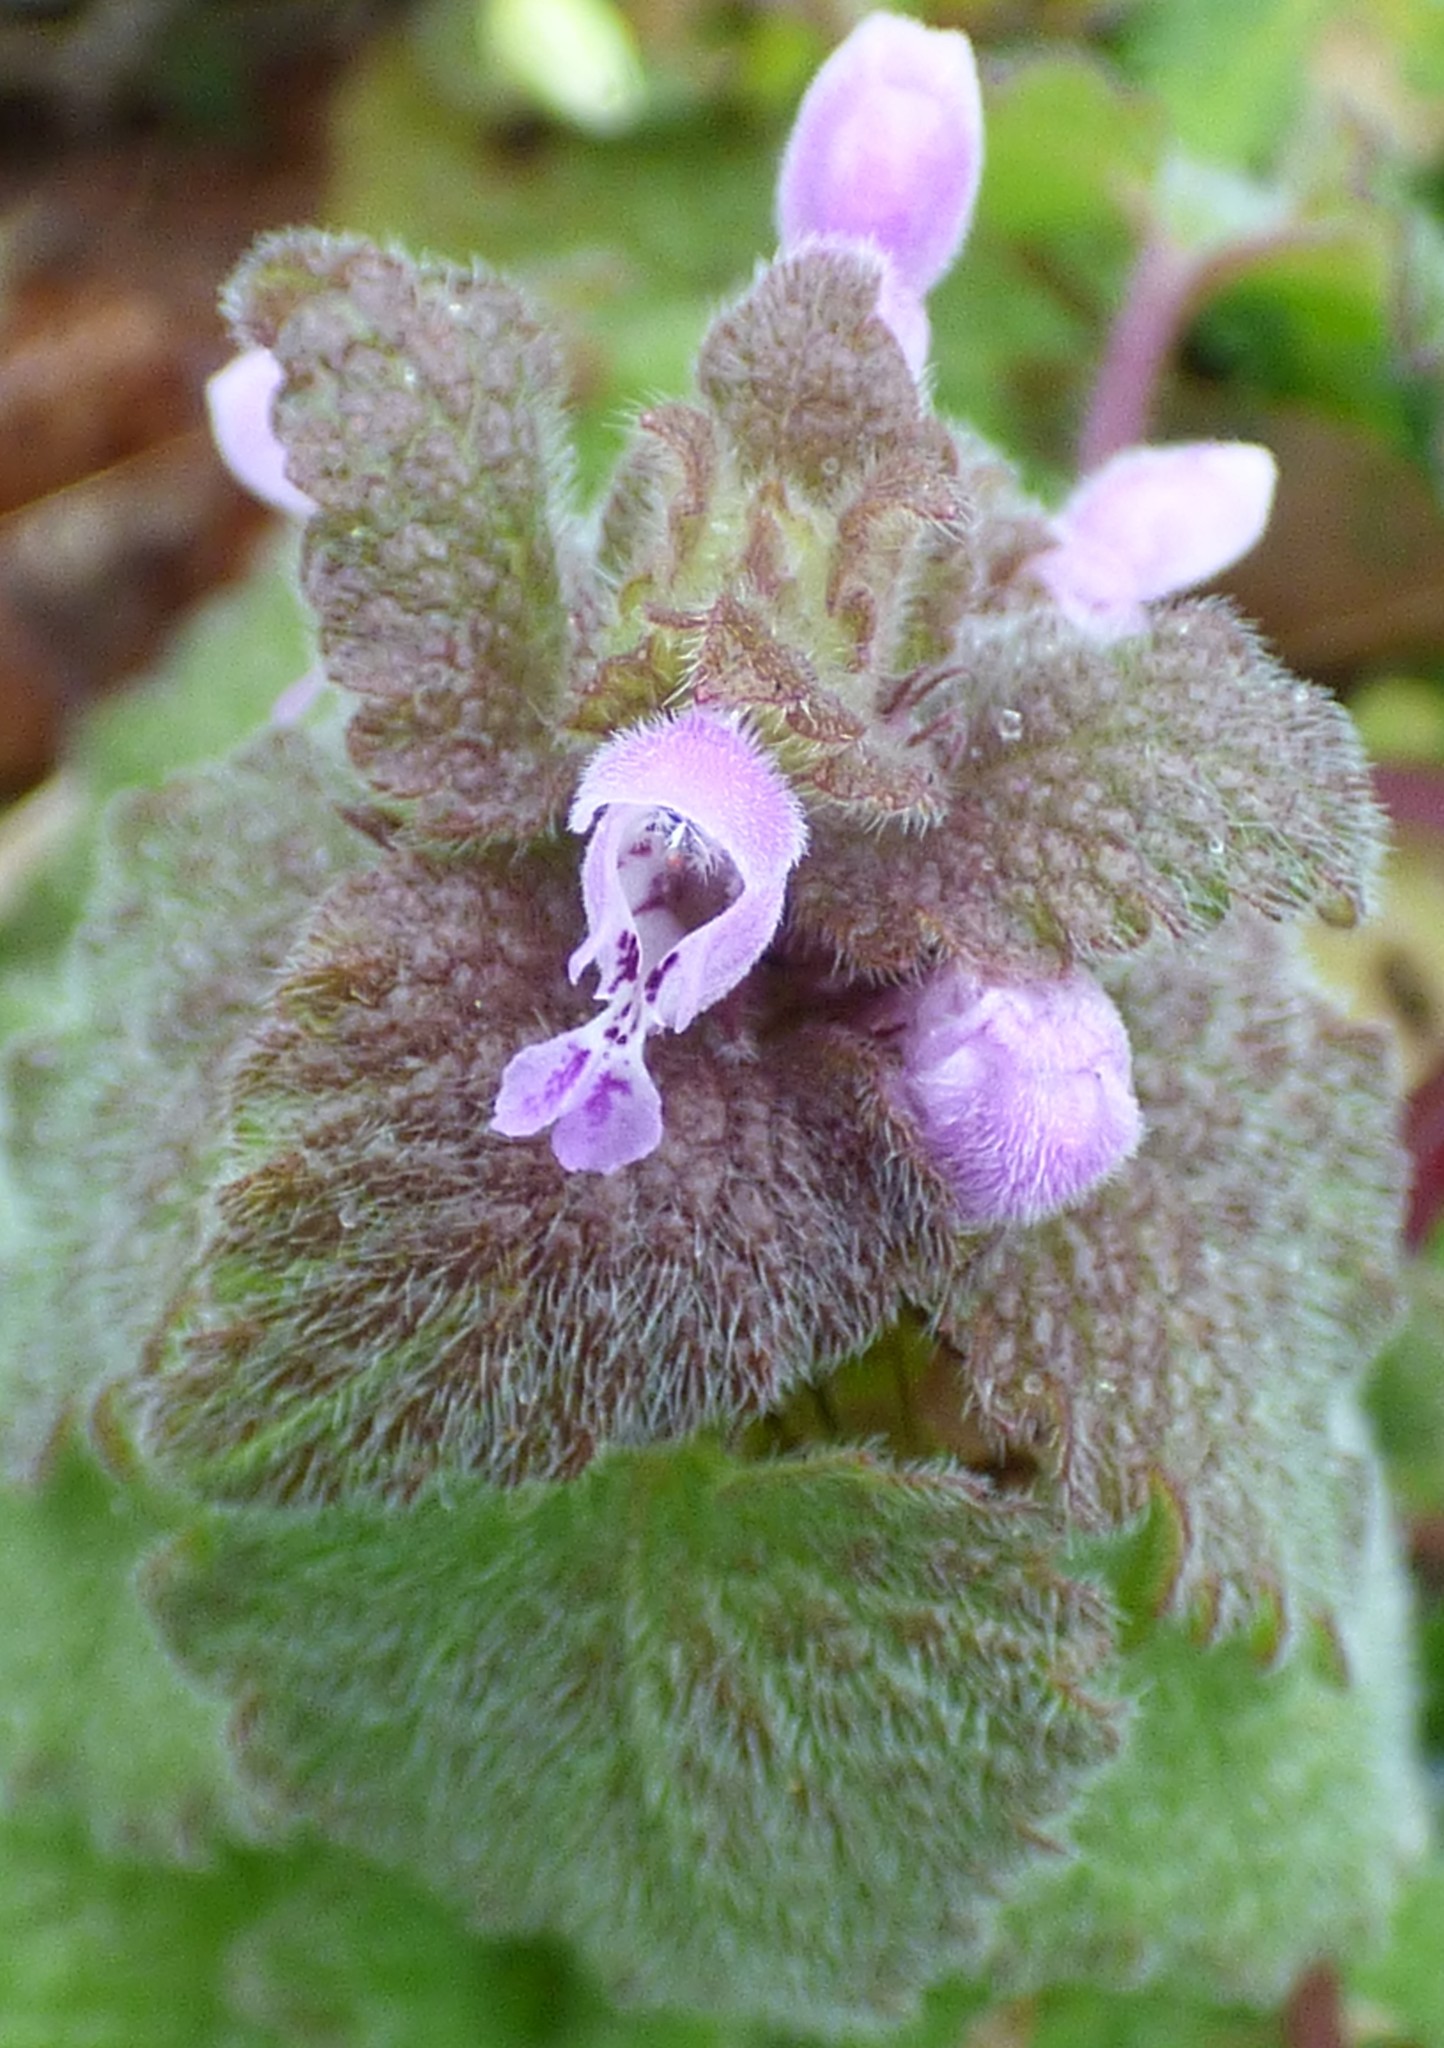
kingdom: Plantae
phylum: Tracheophyta
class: Magnoliopsida
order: Lamiales
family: Lamiaceae
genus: Lamium
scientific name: Lamium purpureum
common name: Red dead-nettle
